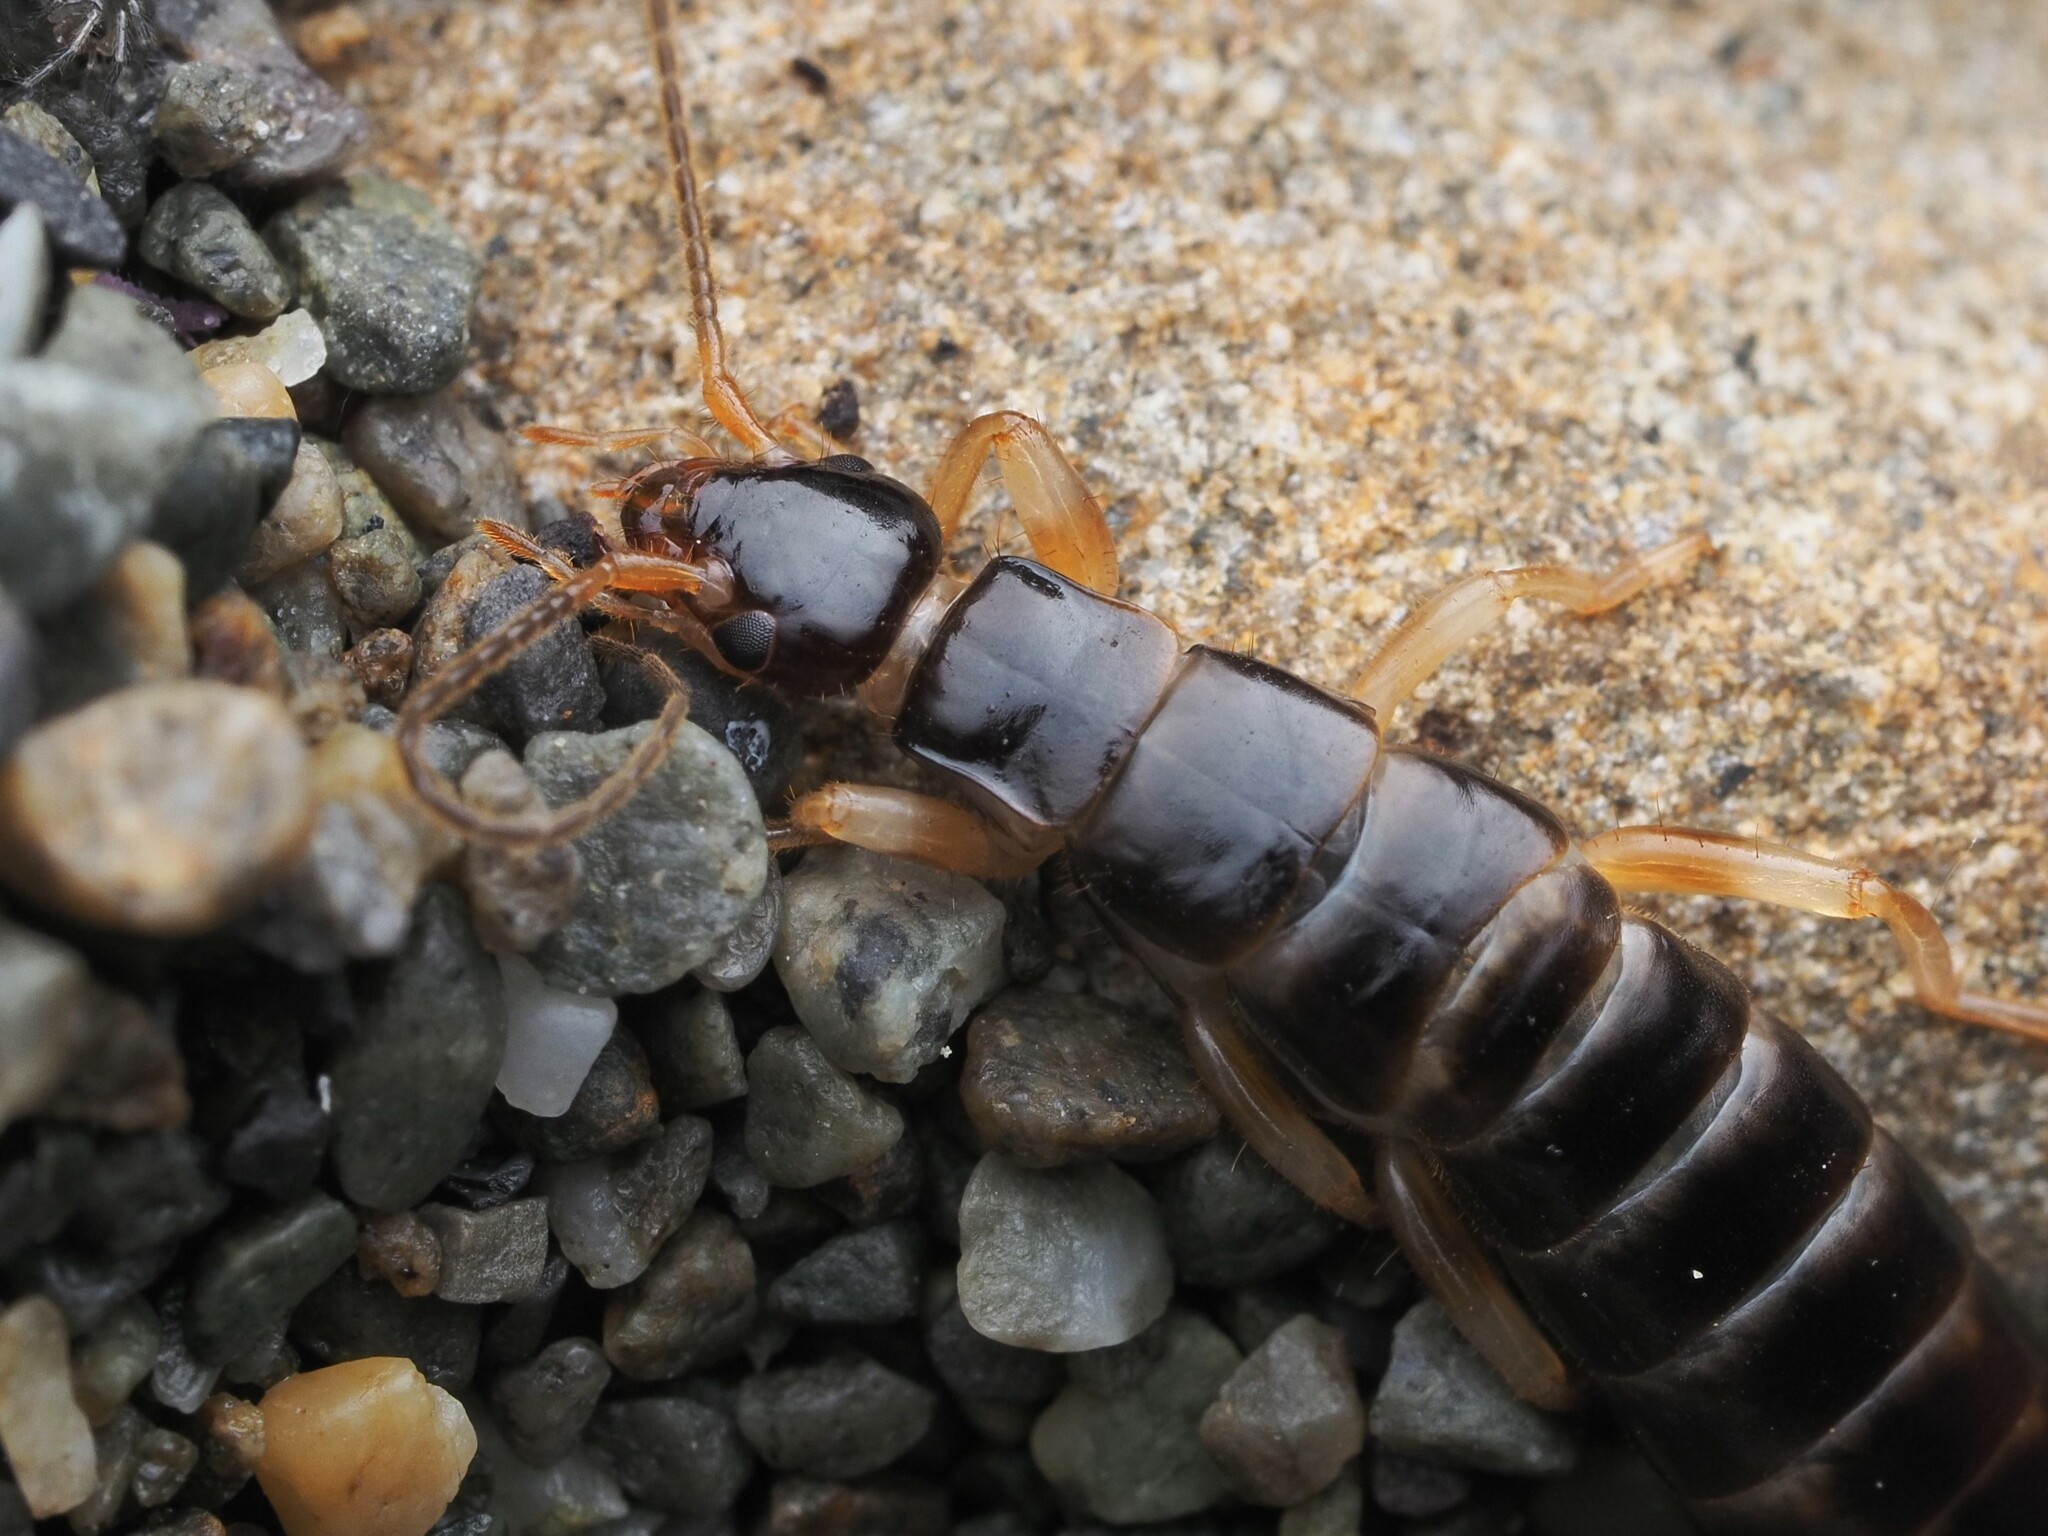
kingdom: Animalia
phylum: Arthropoda
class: Insecta
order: Dermaptera
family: Anisolabididae
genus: Anisolabis
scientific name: Anisolabis littorea
